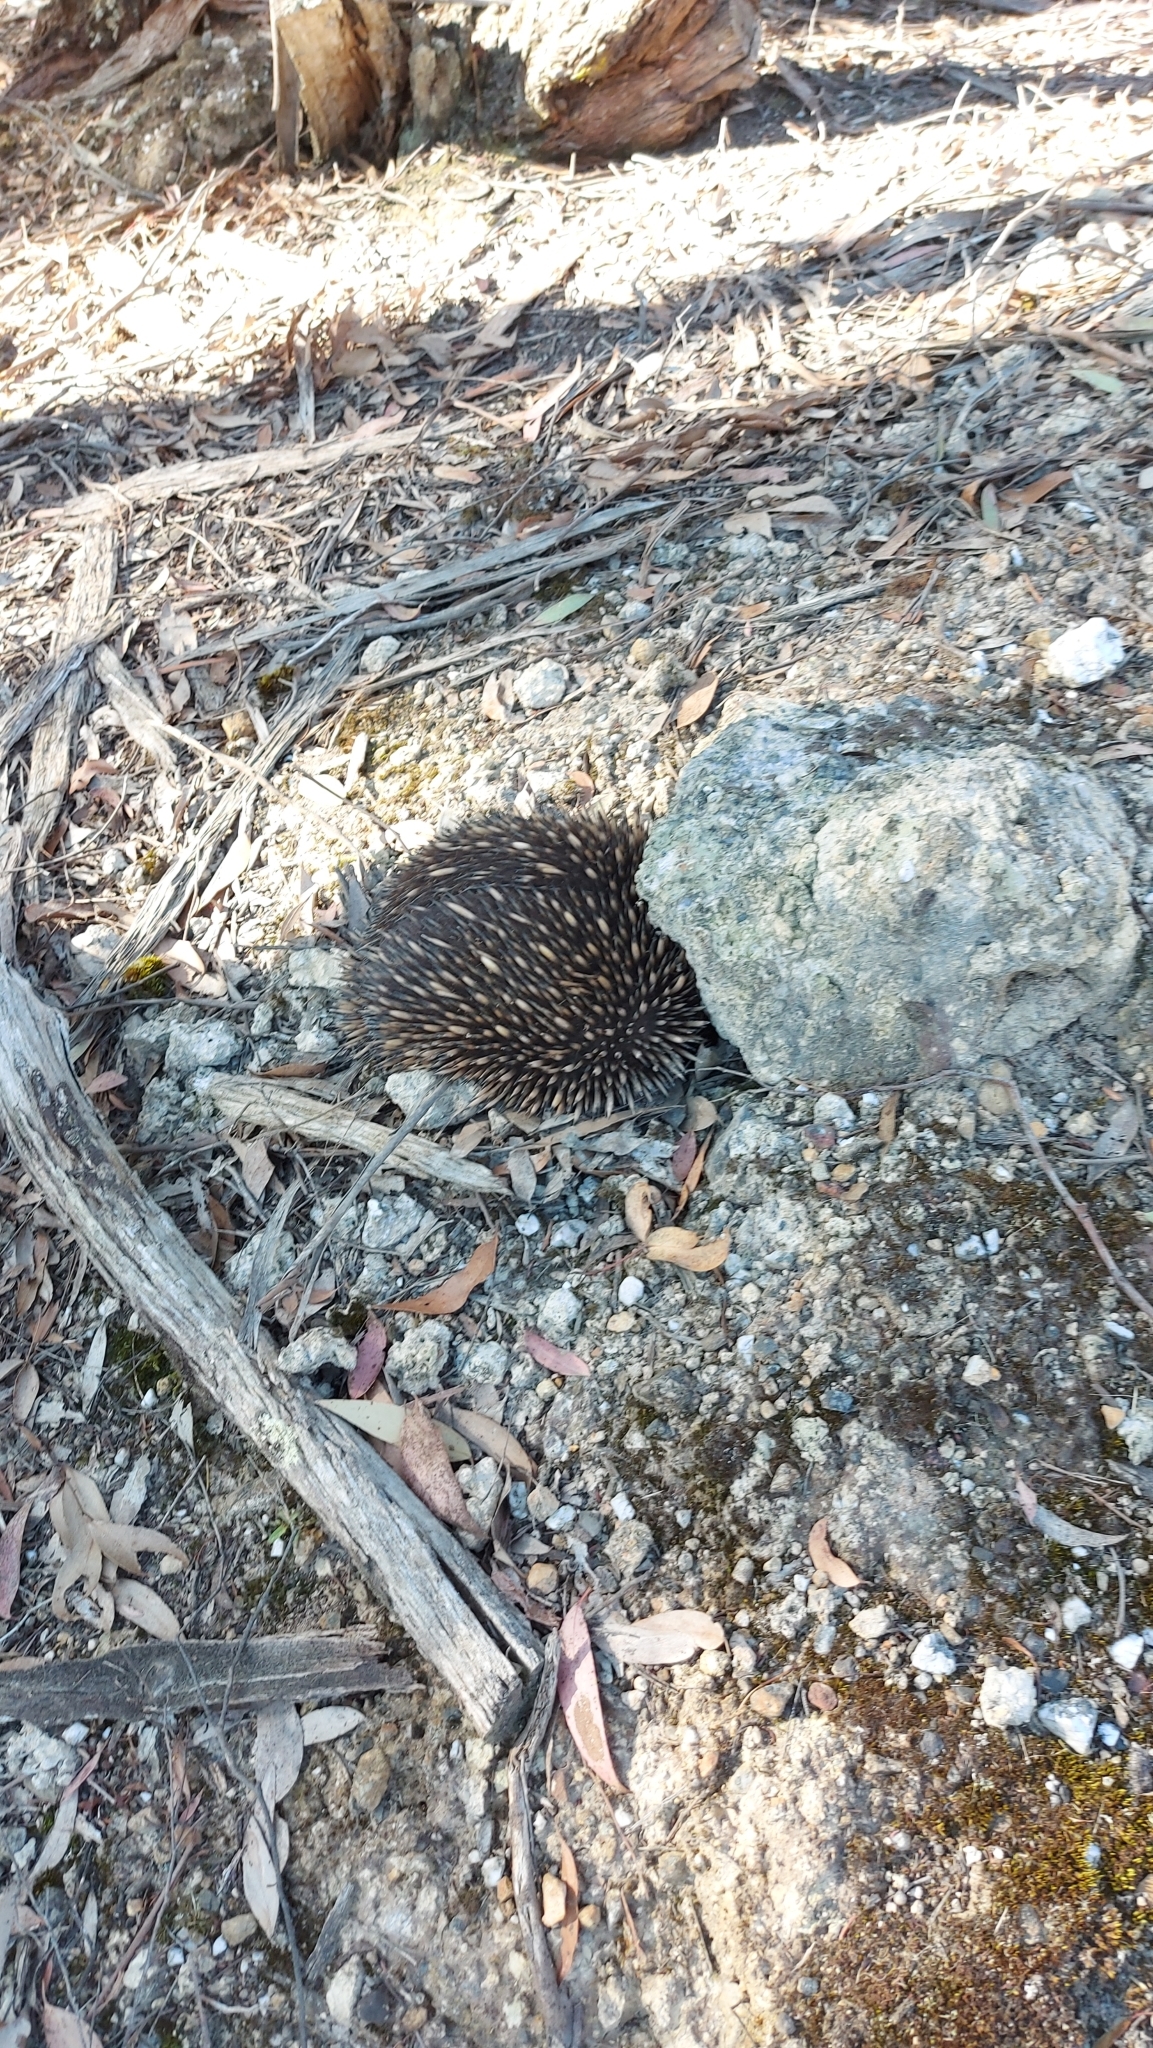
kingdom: Animalia
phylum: Chordata
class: Mammalia
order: Monotremata
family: Tachyglossidae
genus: Tachyglossus
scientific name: Tachyglossus aculeatus
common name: Short-beaked echidna
